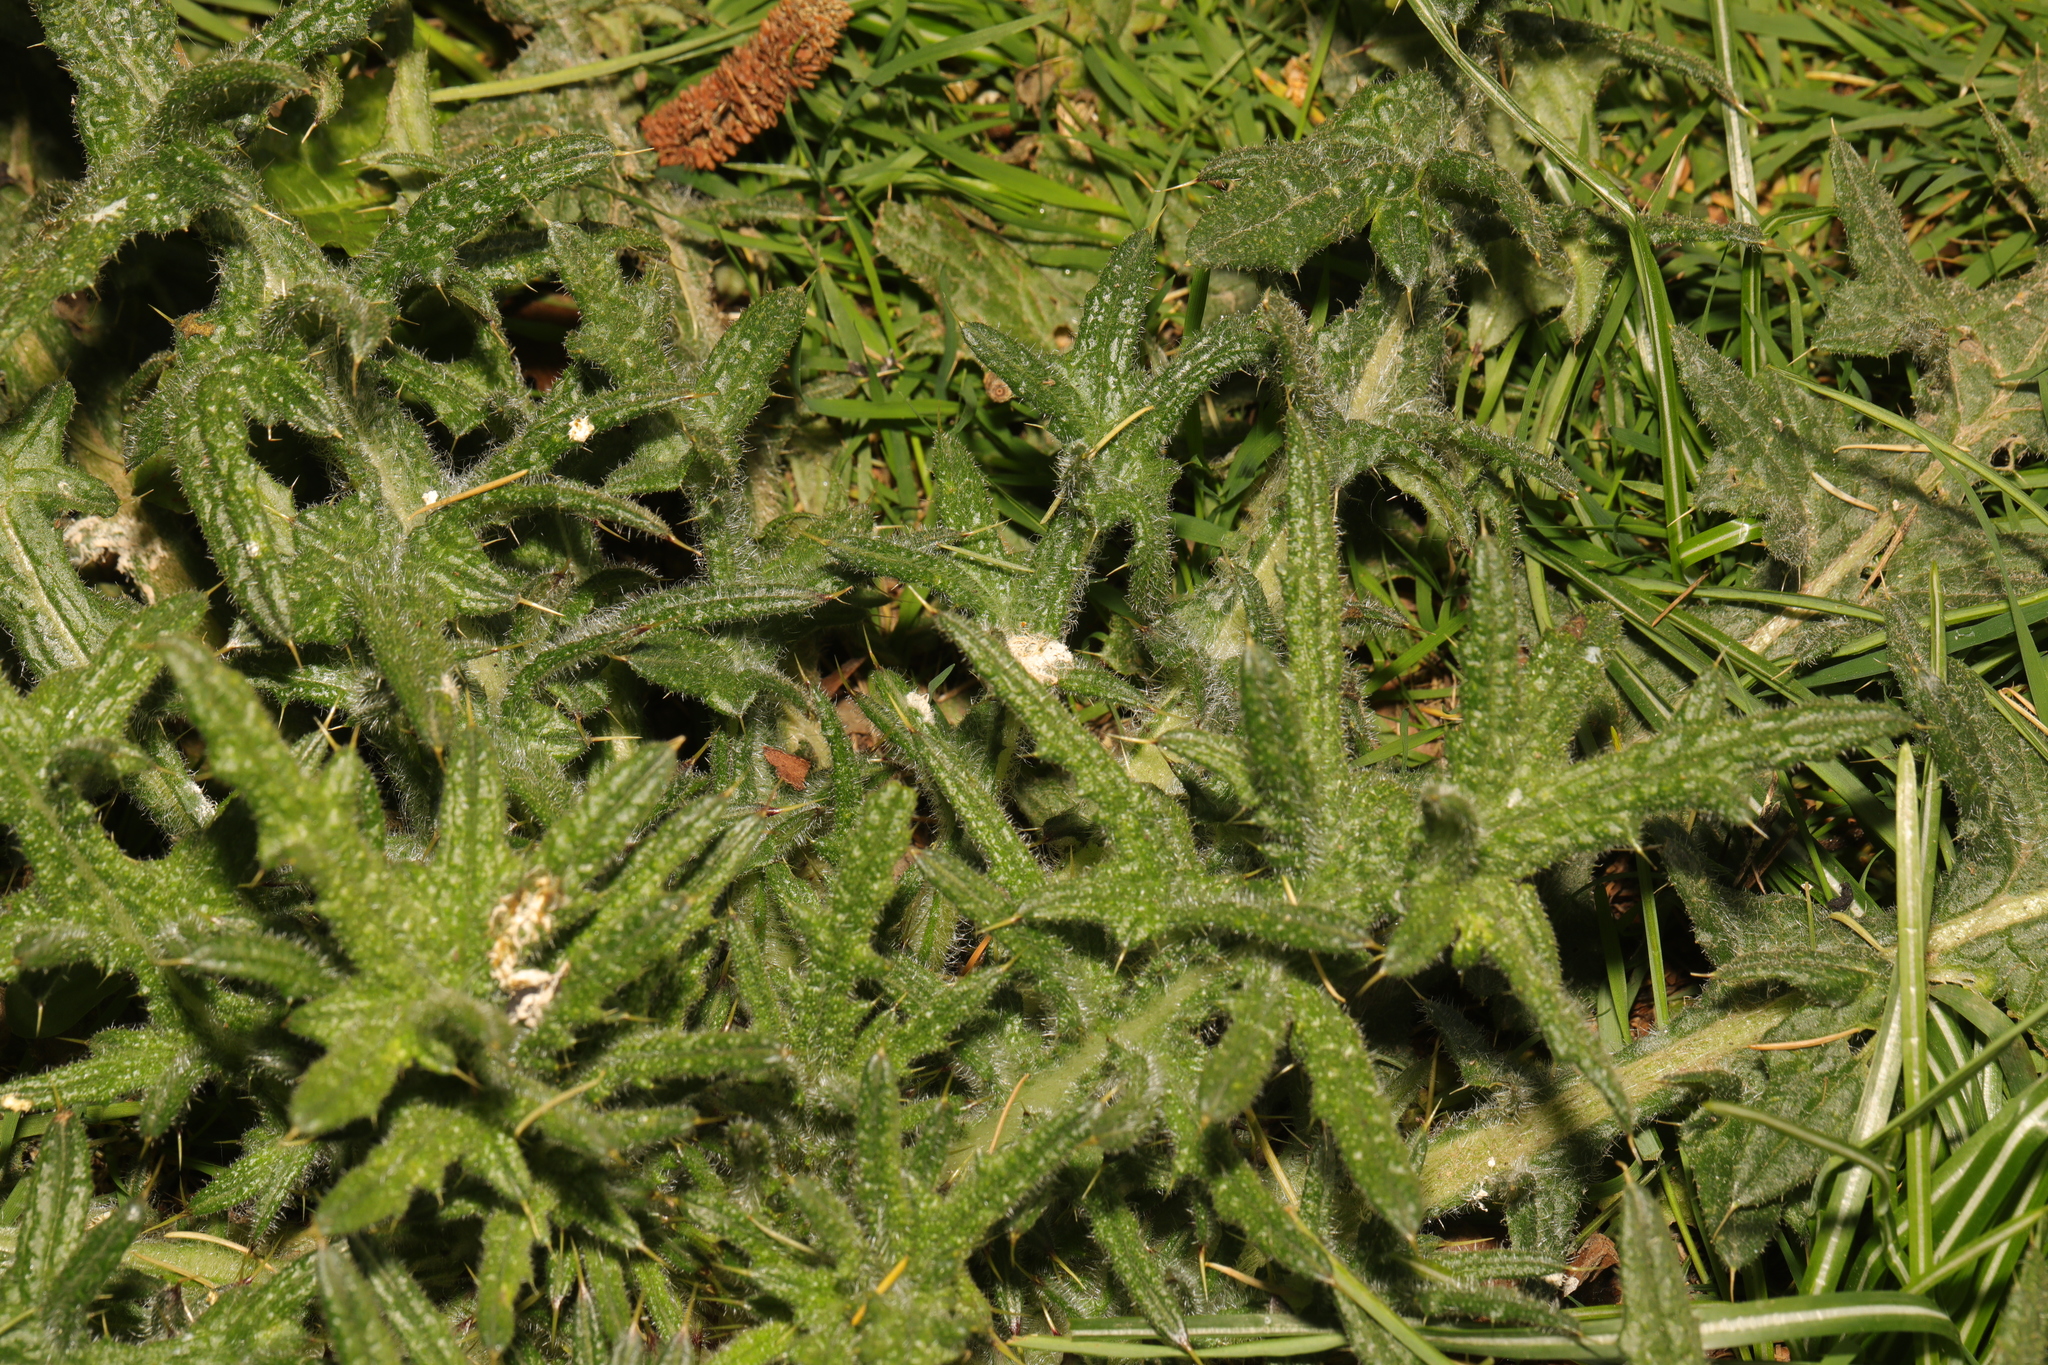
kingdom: Plantae
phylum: Tracheophyta
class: Magnoliopsida
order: Asterales
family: Asteraceae
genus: Cirsium
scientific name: Cirsium vulgare
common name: Bull thistle
